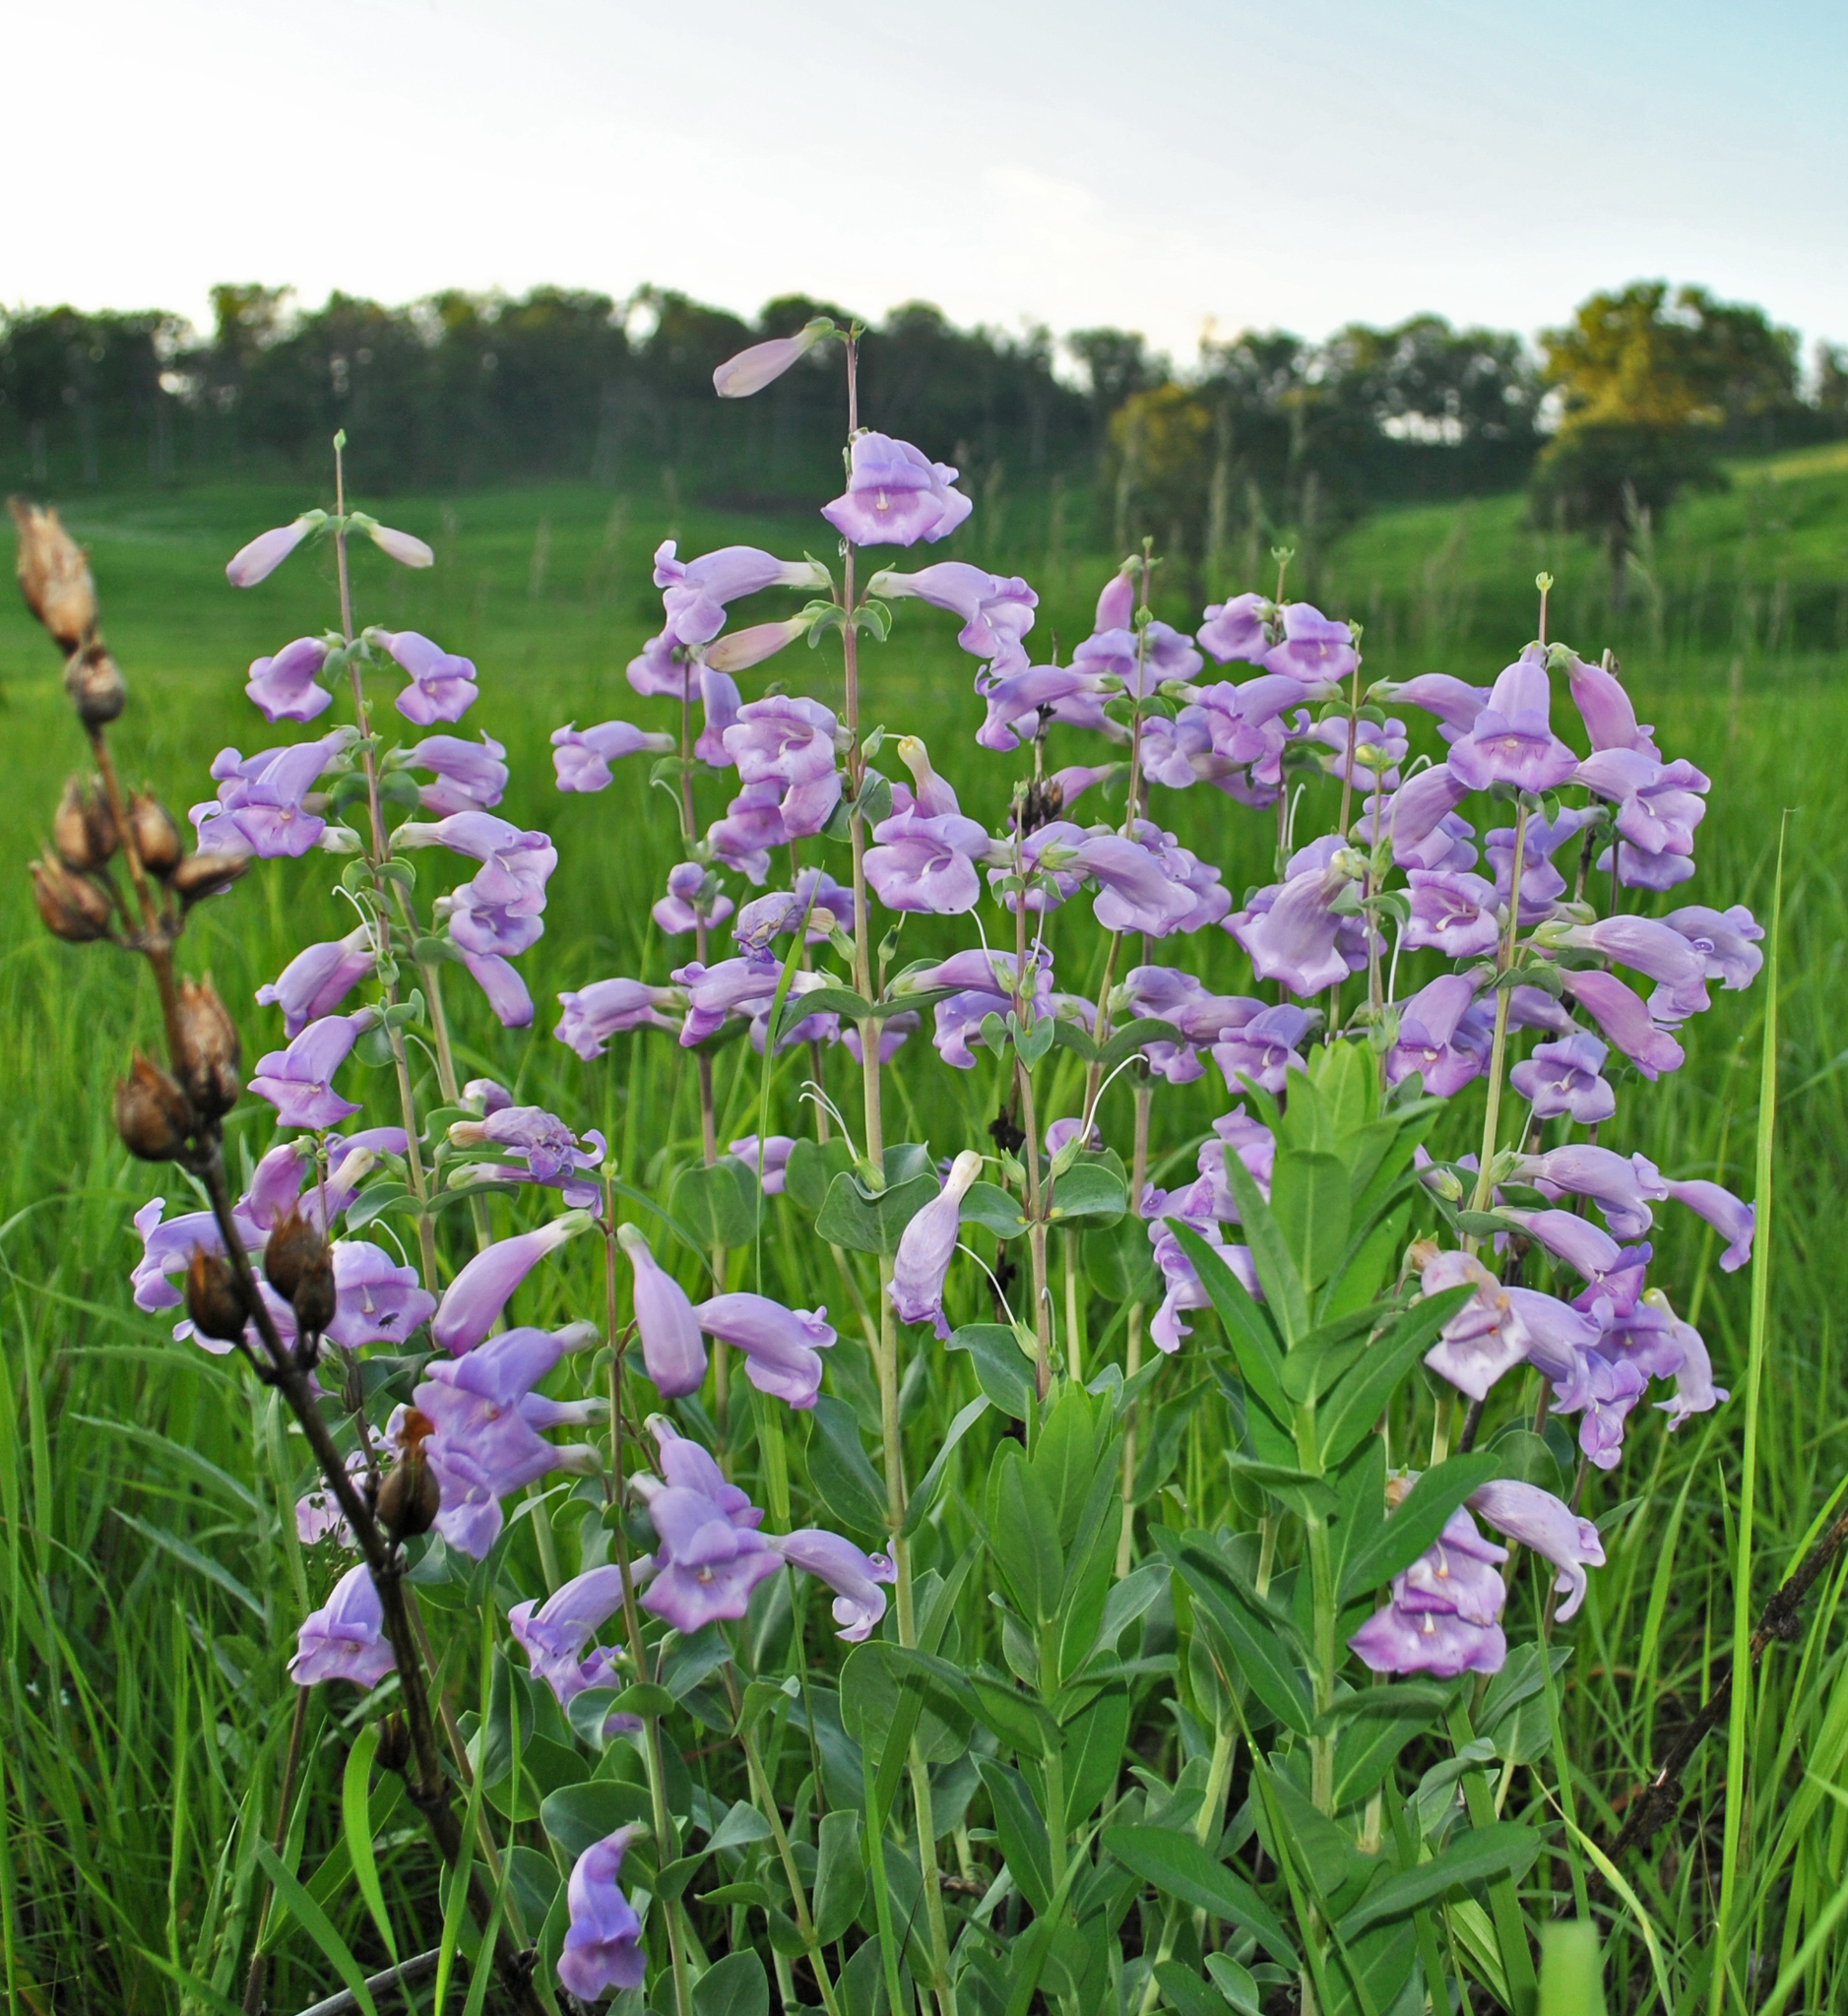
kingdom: Plantae
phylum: Tracheophyta
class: Magnoliopsida
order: Lamiales
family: Plantaginaceae
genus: Penstemon
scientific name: Penstemon
